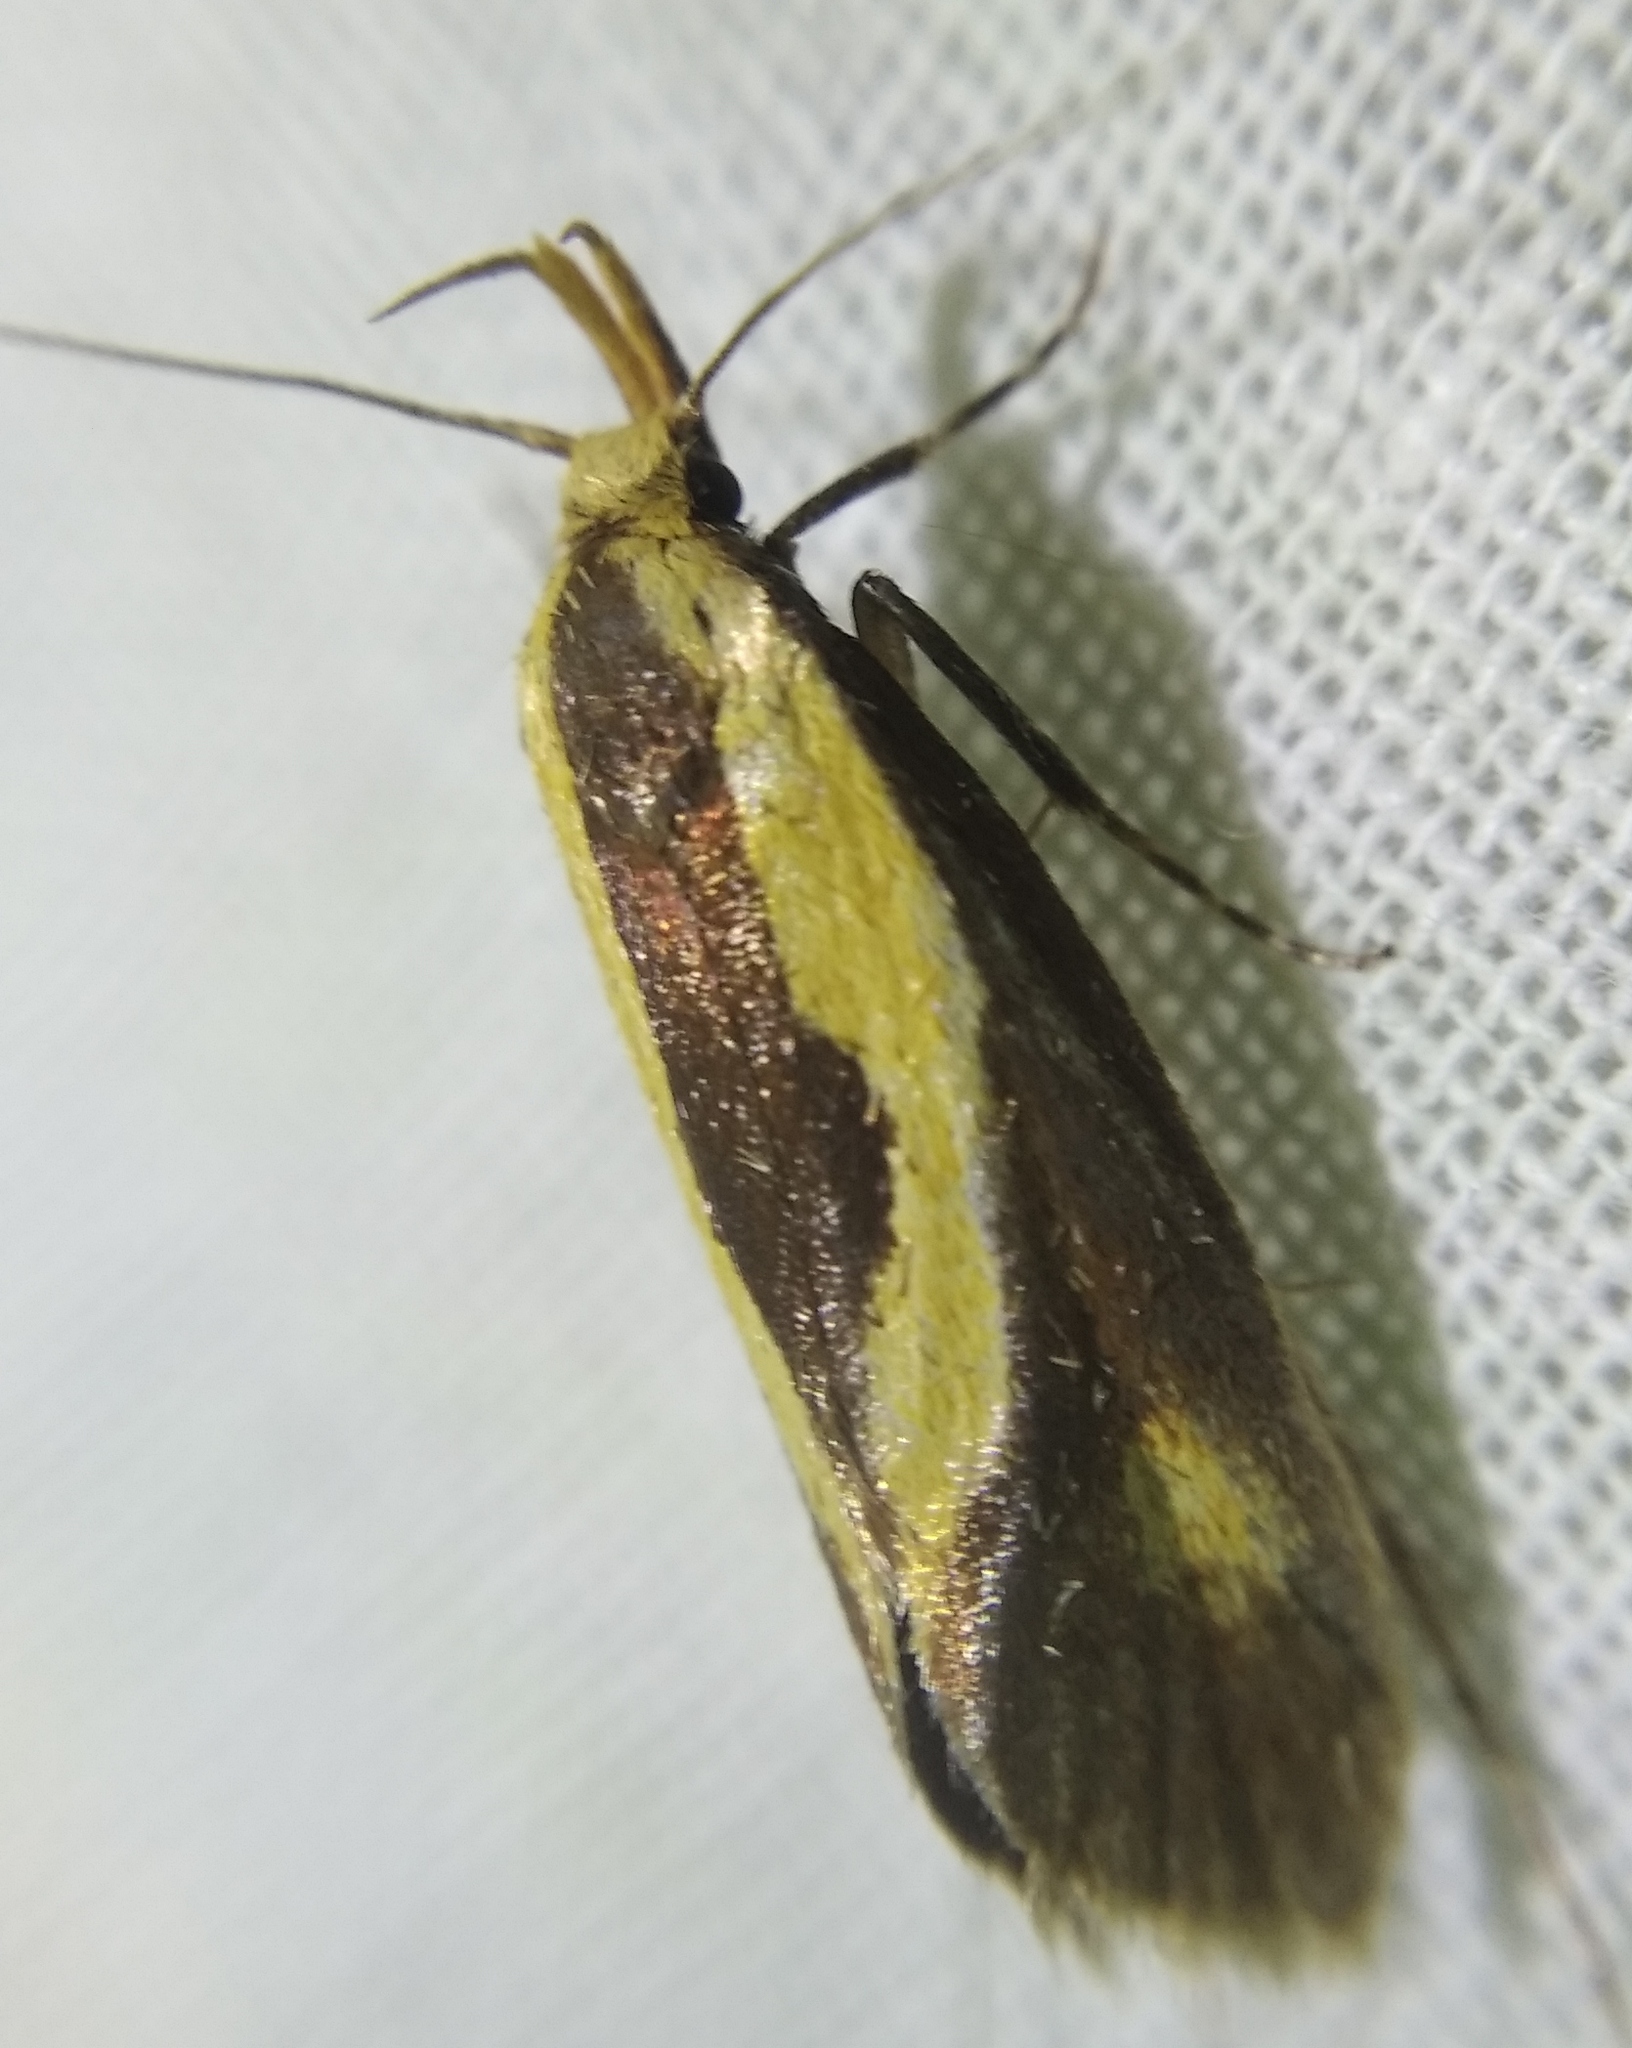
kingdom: Animalia
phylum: Arthropoda
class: Insecta
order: Lepidoptera
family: Oecophoridae
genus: Harpella
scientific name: Harpella forficella
